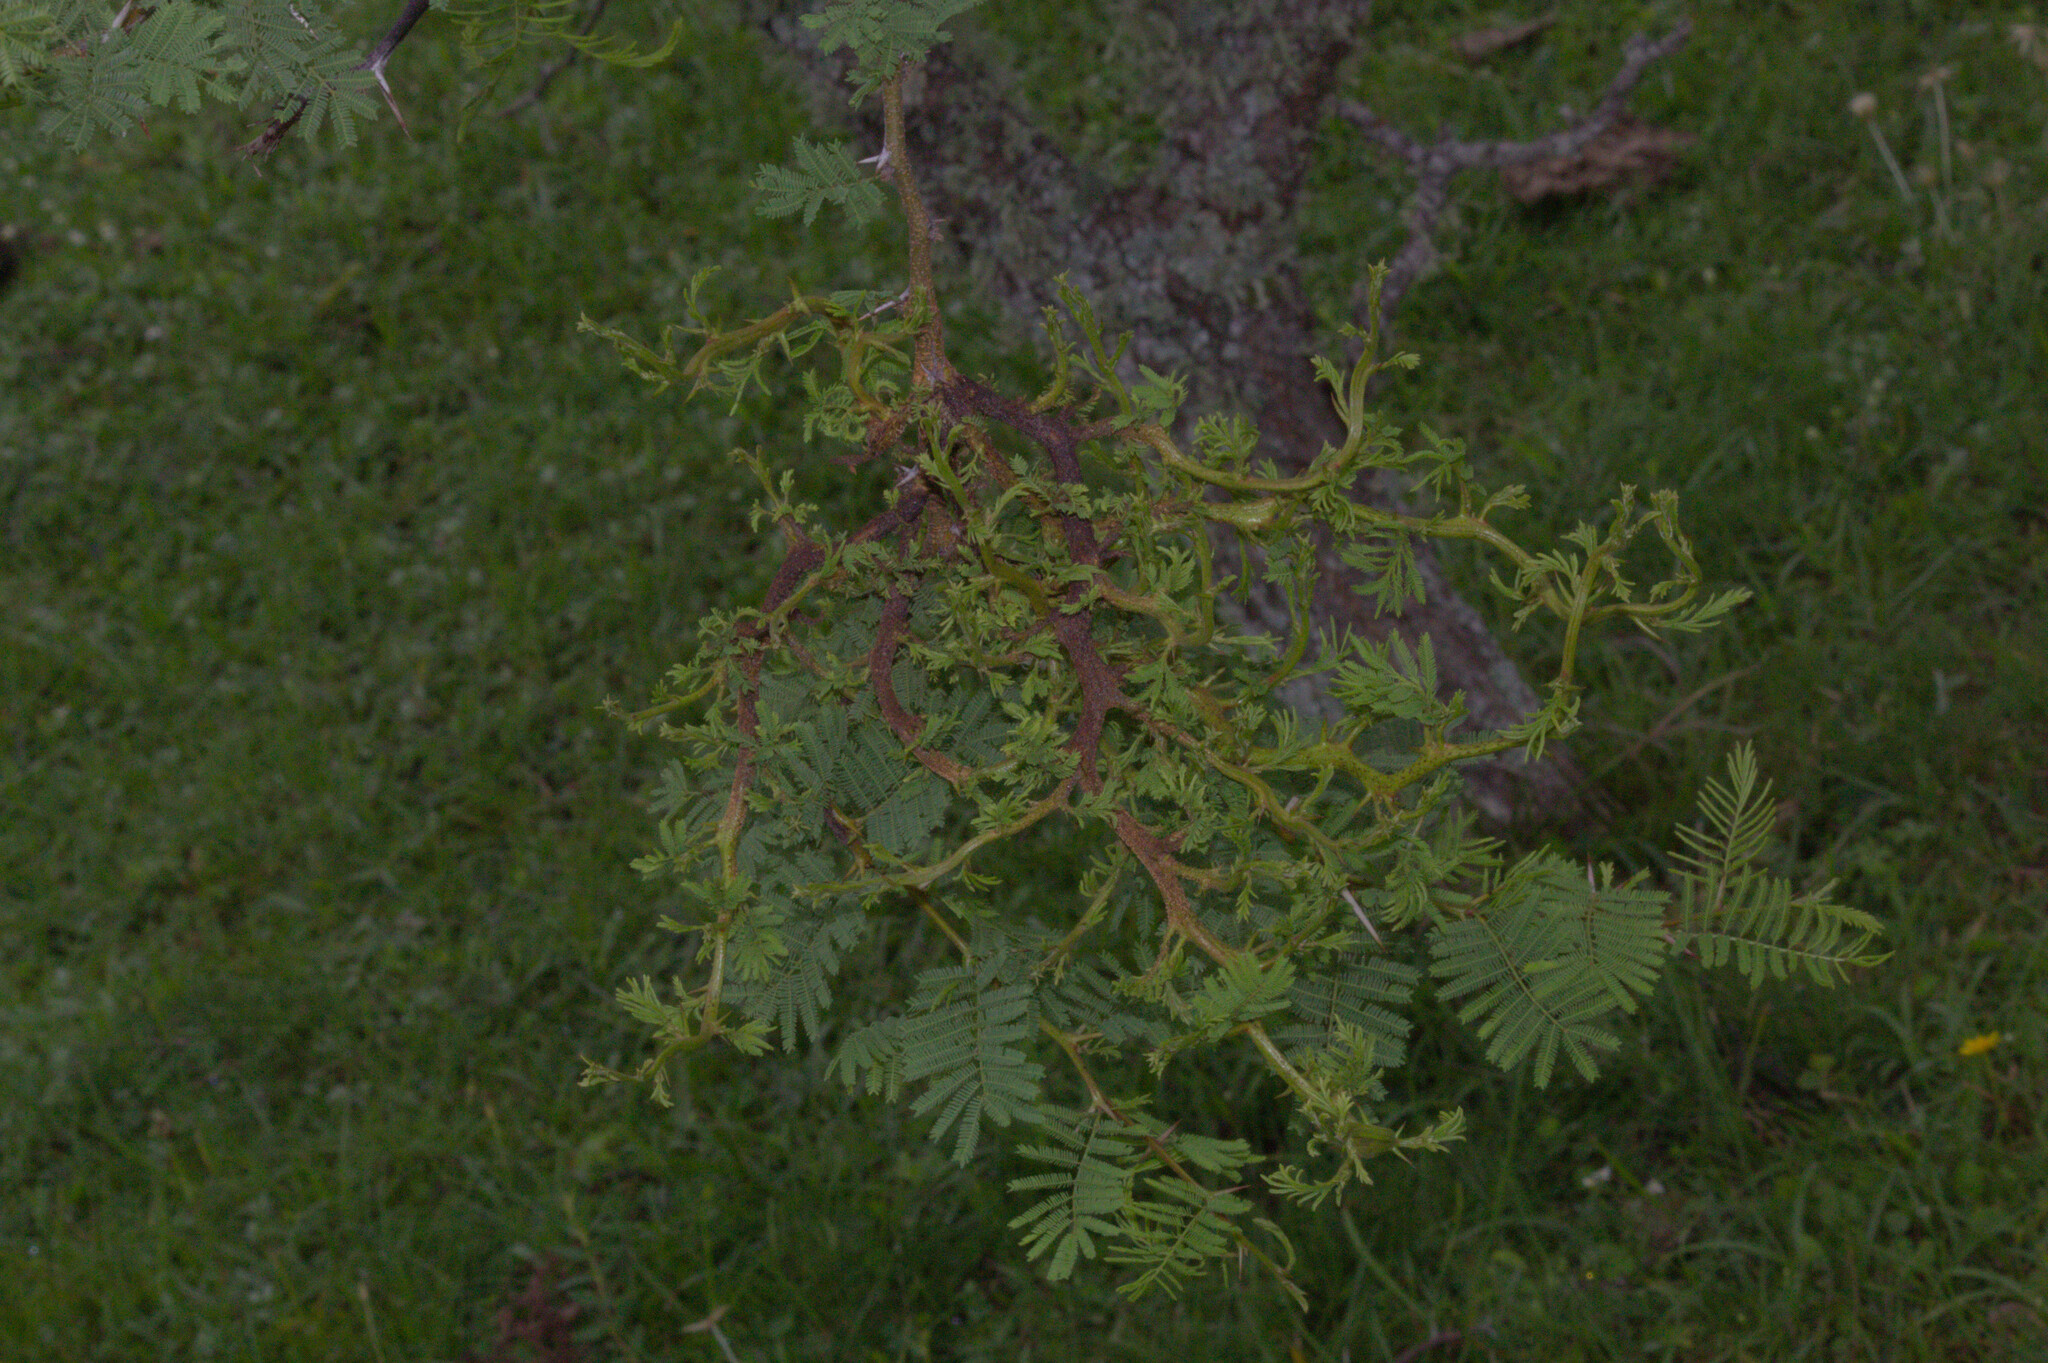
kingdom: Fungi
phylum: Basidiomycota
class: Pucciniomycetes
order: Pucciniales
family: Raveneliaceae
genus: Ravenelia
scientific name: Ravenelia hieronymi
